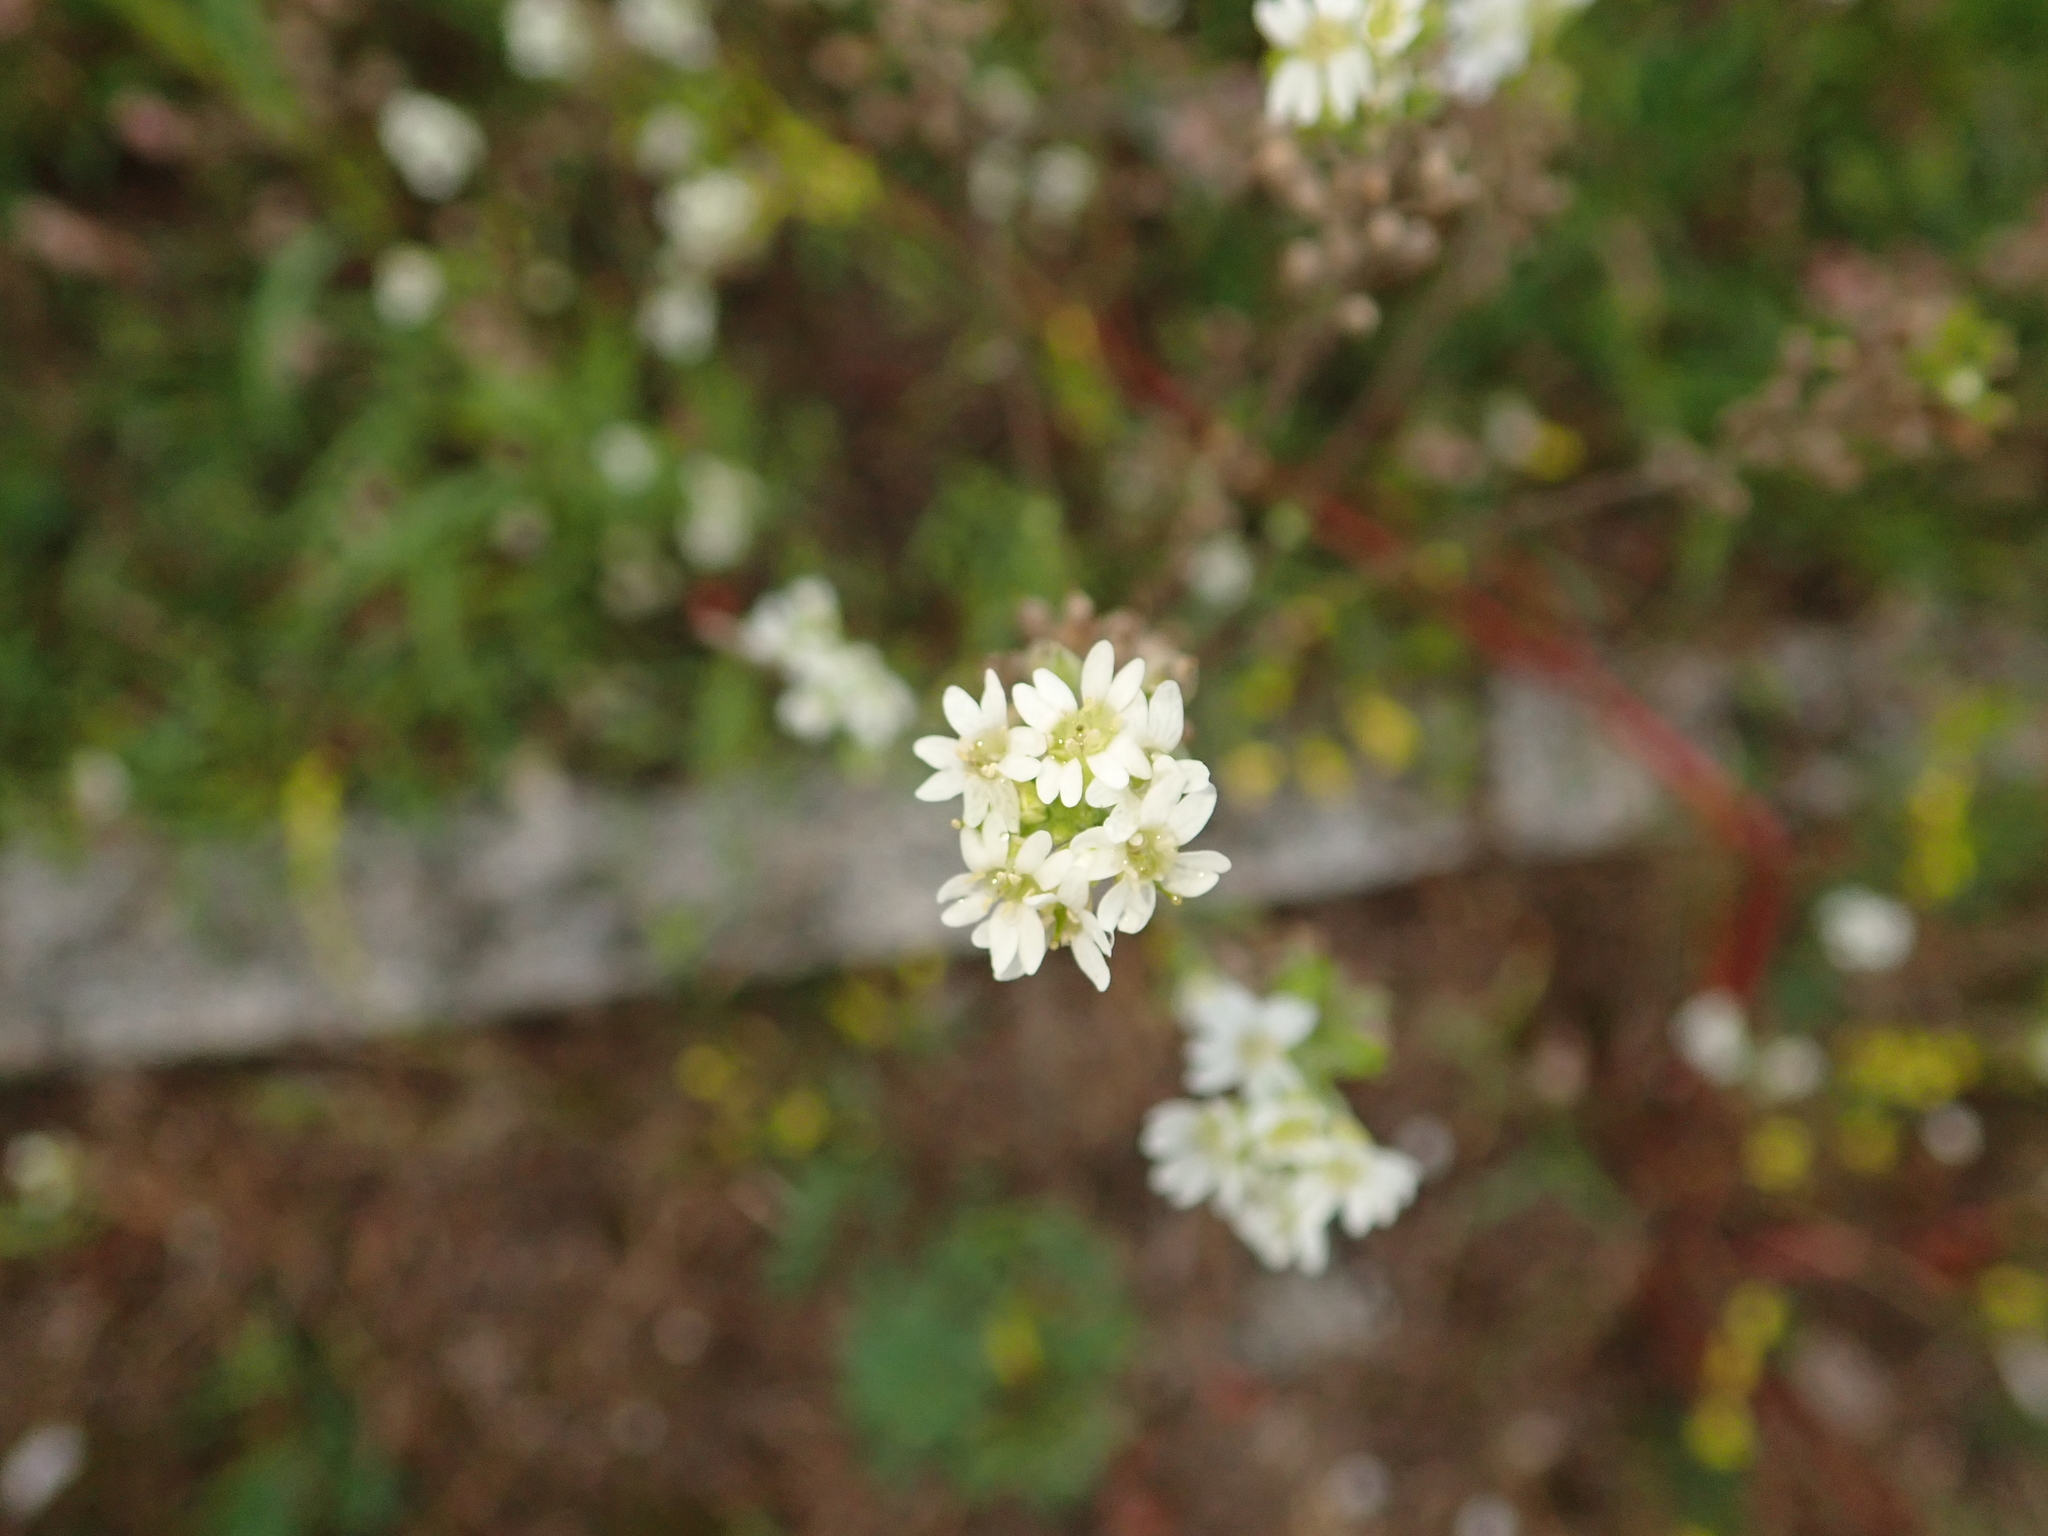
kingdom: Plantae
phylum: Tracheophyta
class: Magnoliopsida
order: Brassicales
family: Brassicaceae
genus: Berteroa
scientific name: Berteroa incana
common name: Hoary alison
